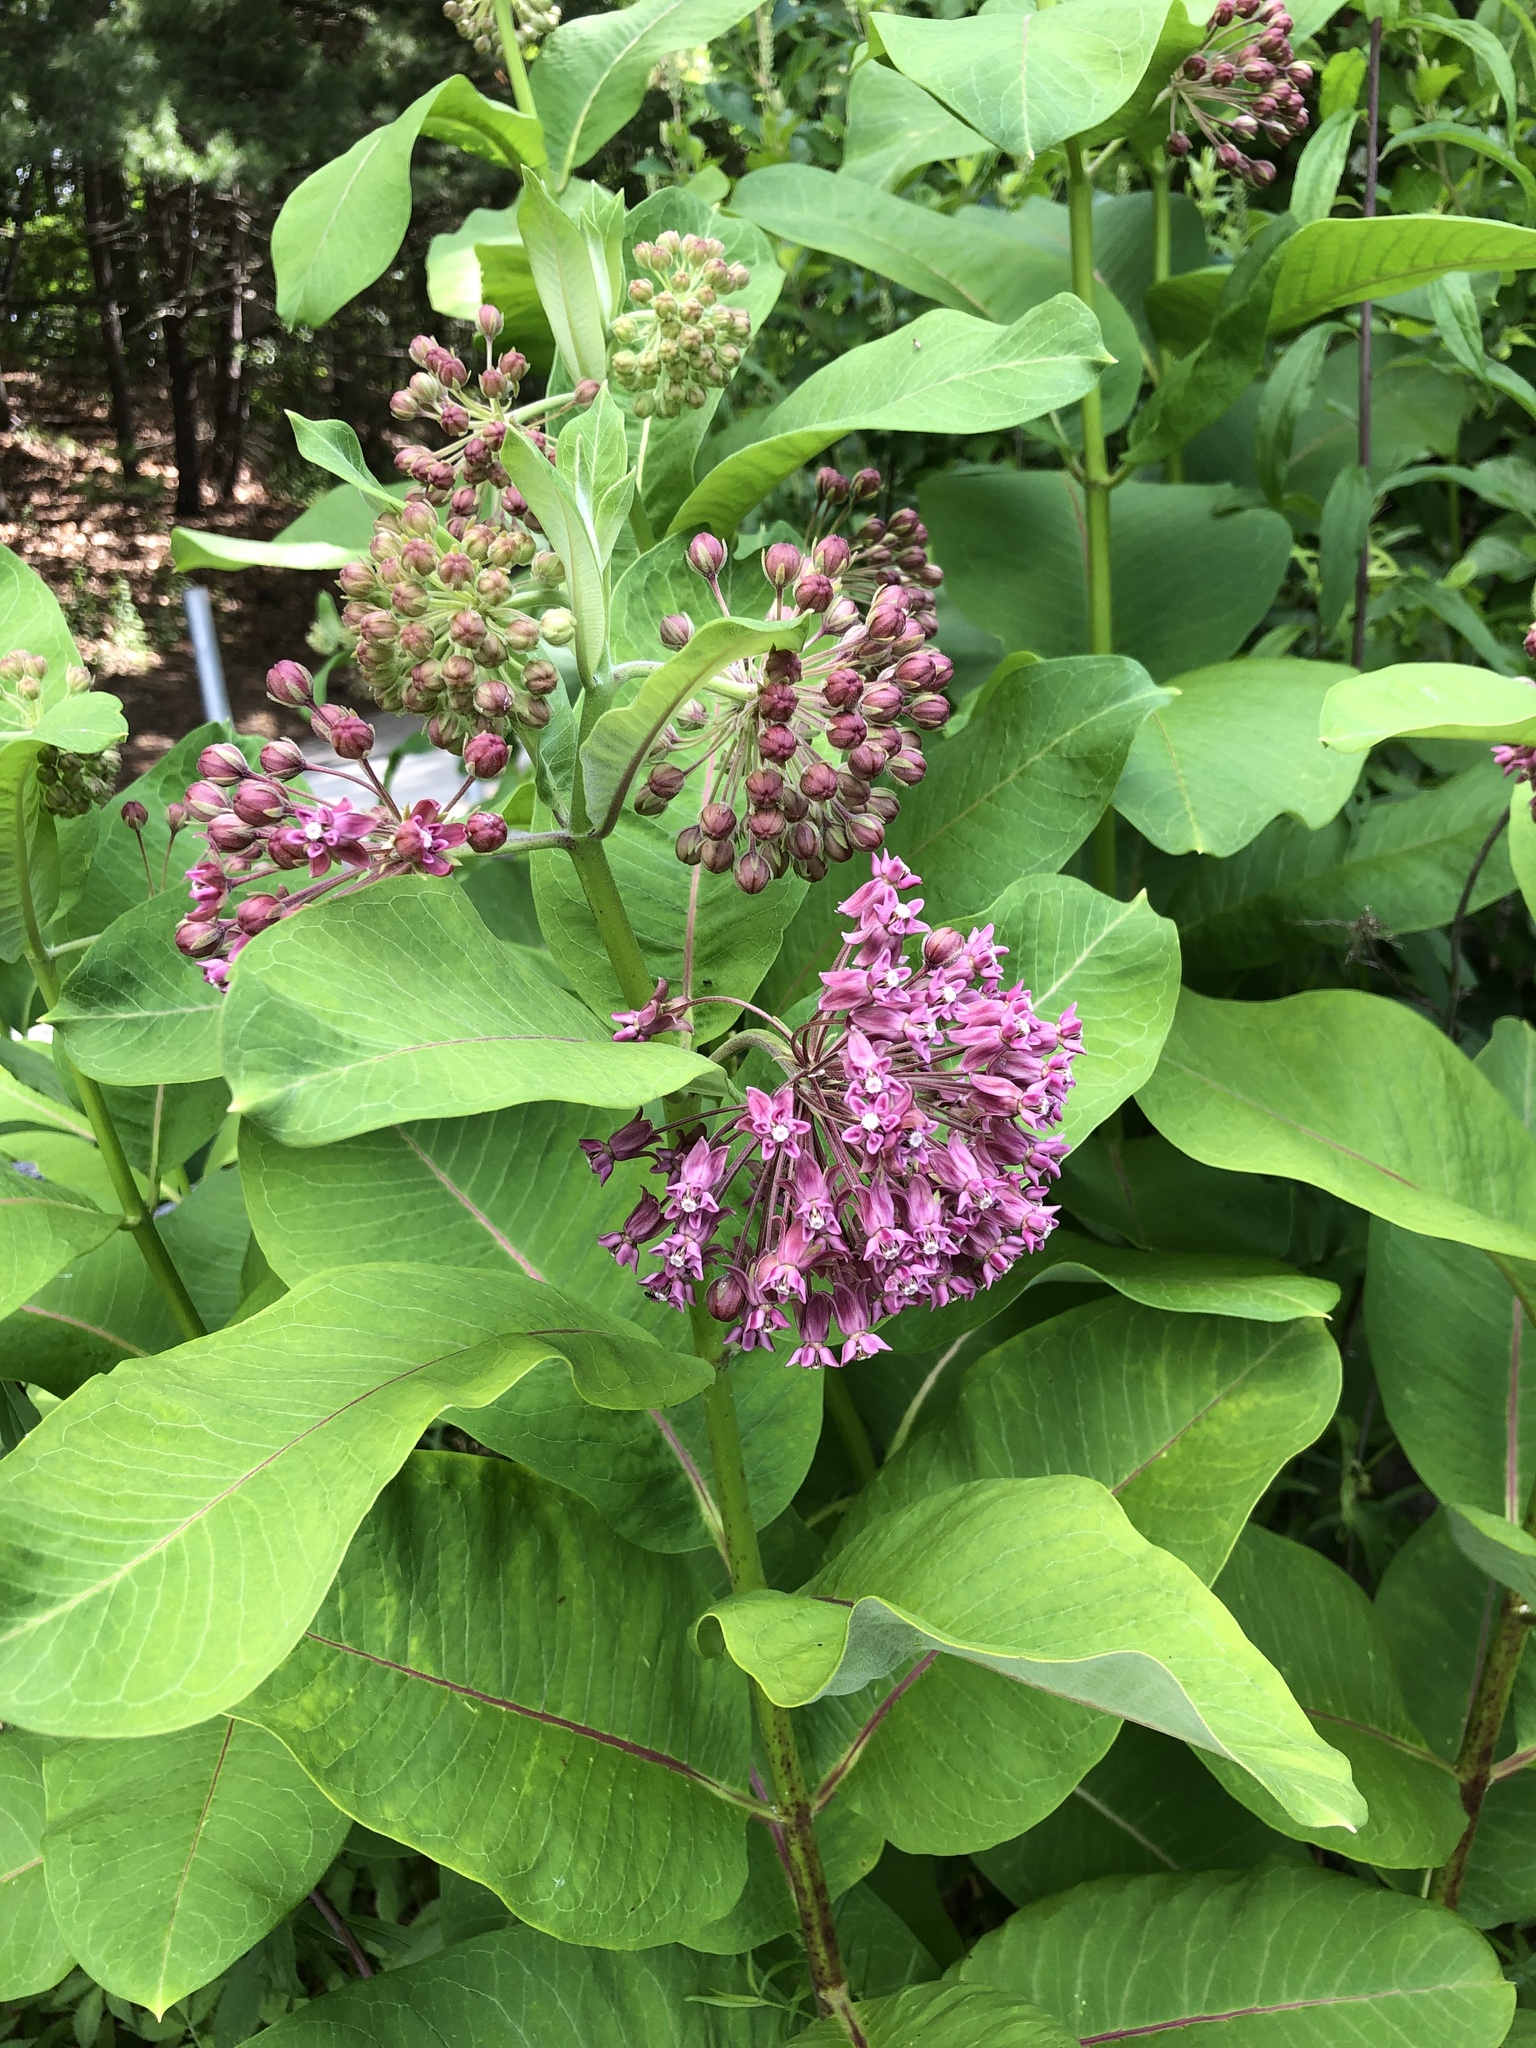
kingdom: Plantae
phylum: Tracheophyta
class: Magnoliopsida
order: Gentianales
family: Apocynaceae
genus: Asclepias
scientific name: Asclepias syriaca
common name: Common milkweed
